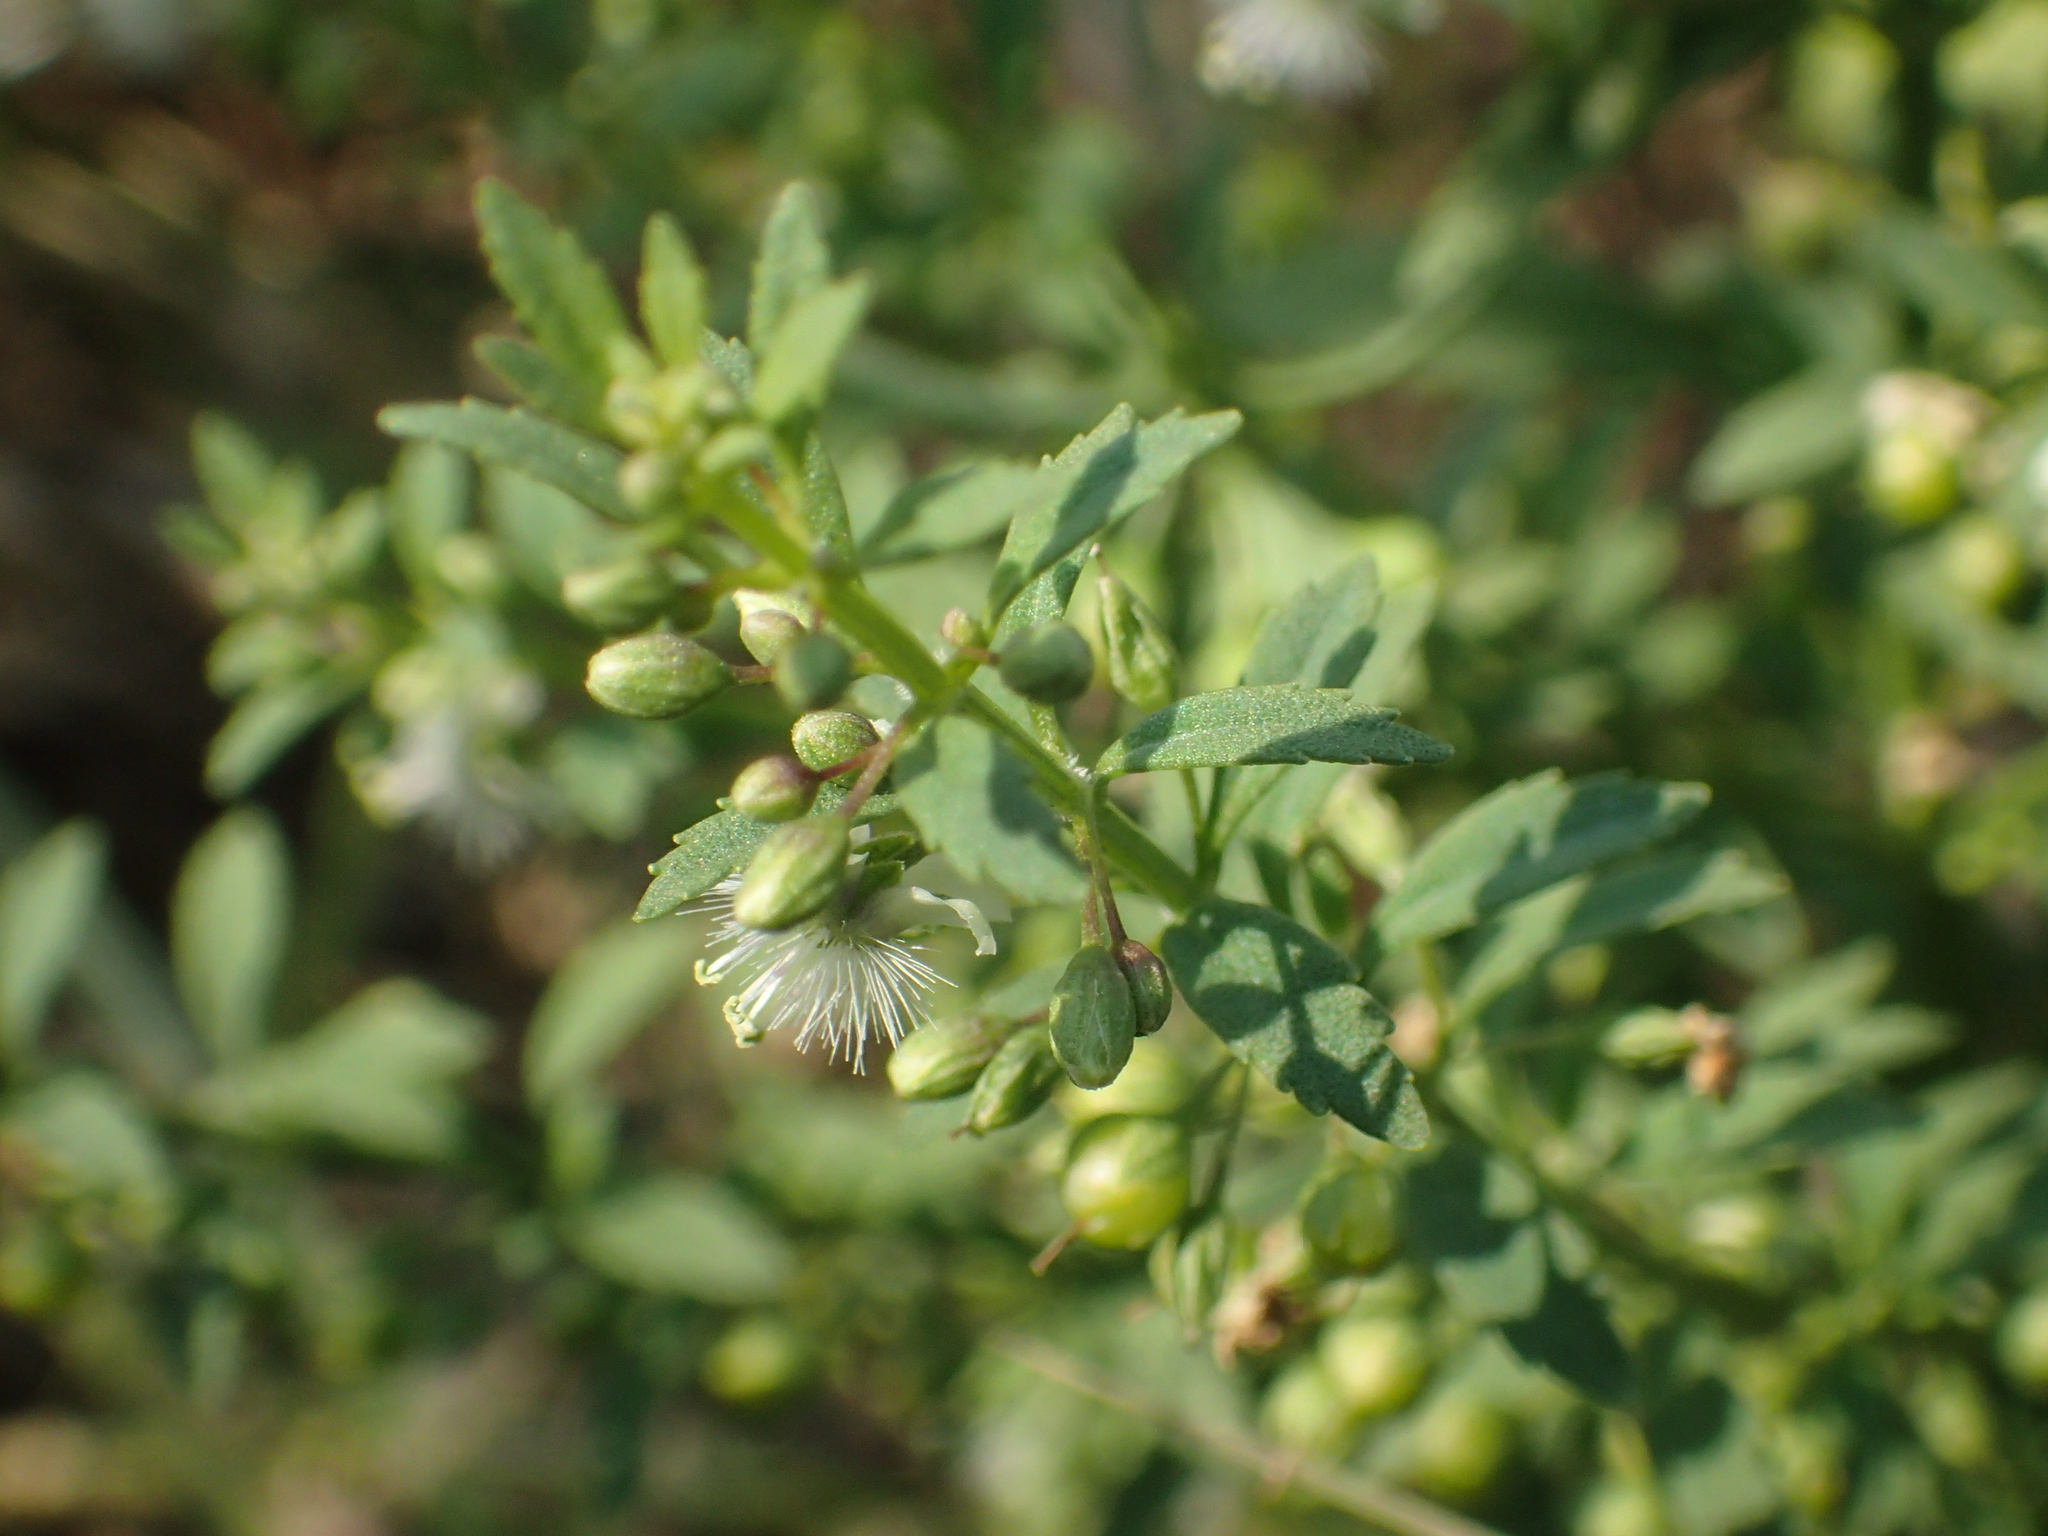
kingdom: Plantae
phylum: Tracheophyta
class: Magnoliopsida
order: Lamiales
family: Plantaginaceae
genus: Scoparia
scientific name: Scoparia dulcis
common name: Scoparia-weed
